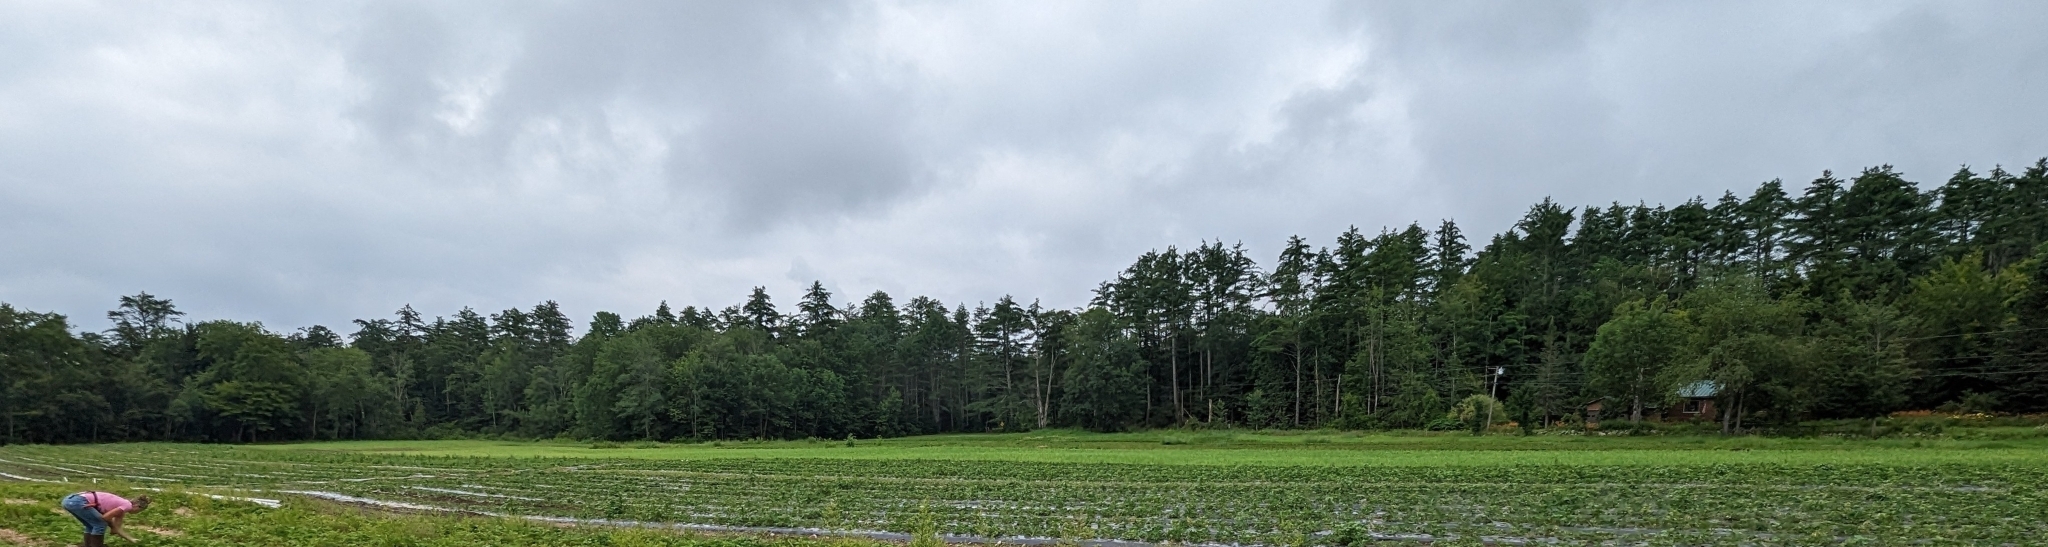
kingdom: Plantae
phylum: Tracheophyta
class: Pinopsida
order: Pinales
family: Pinaceae
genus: Pinus
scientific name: Pinus strobus
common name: Weymouth pine
